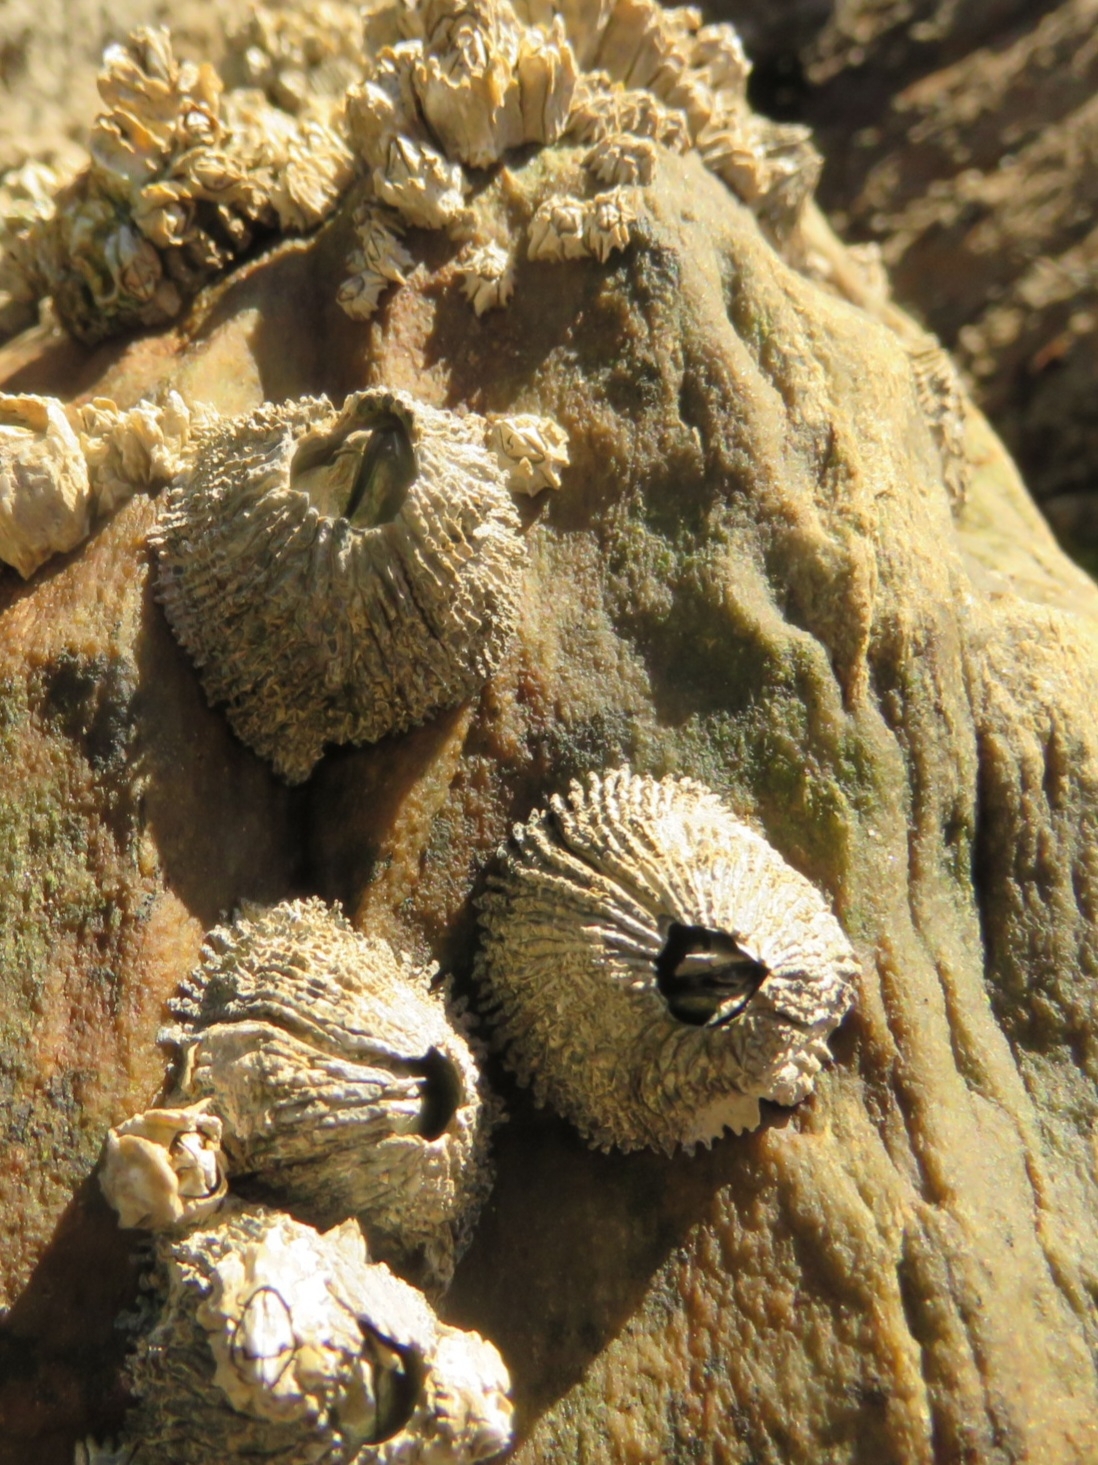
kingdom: Animalia
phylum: Arthropoda
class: Maxillopoda
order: Sessilia
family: Tetraclitidae
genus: Tetraclita
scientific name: Tetraclita serrata
